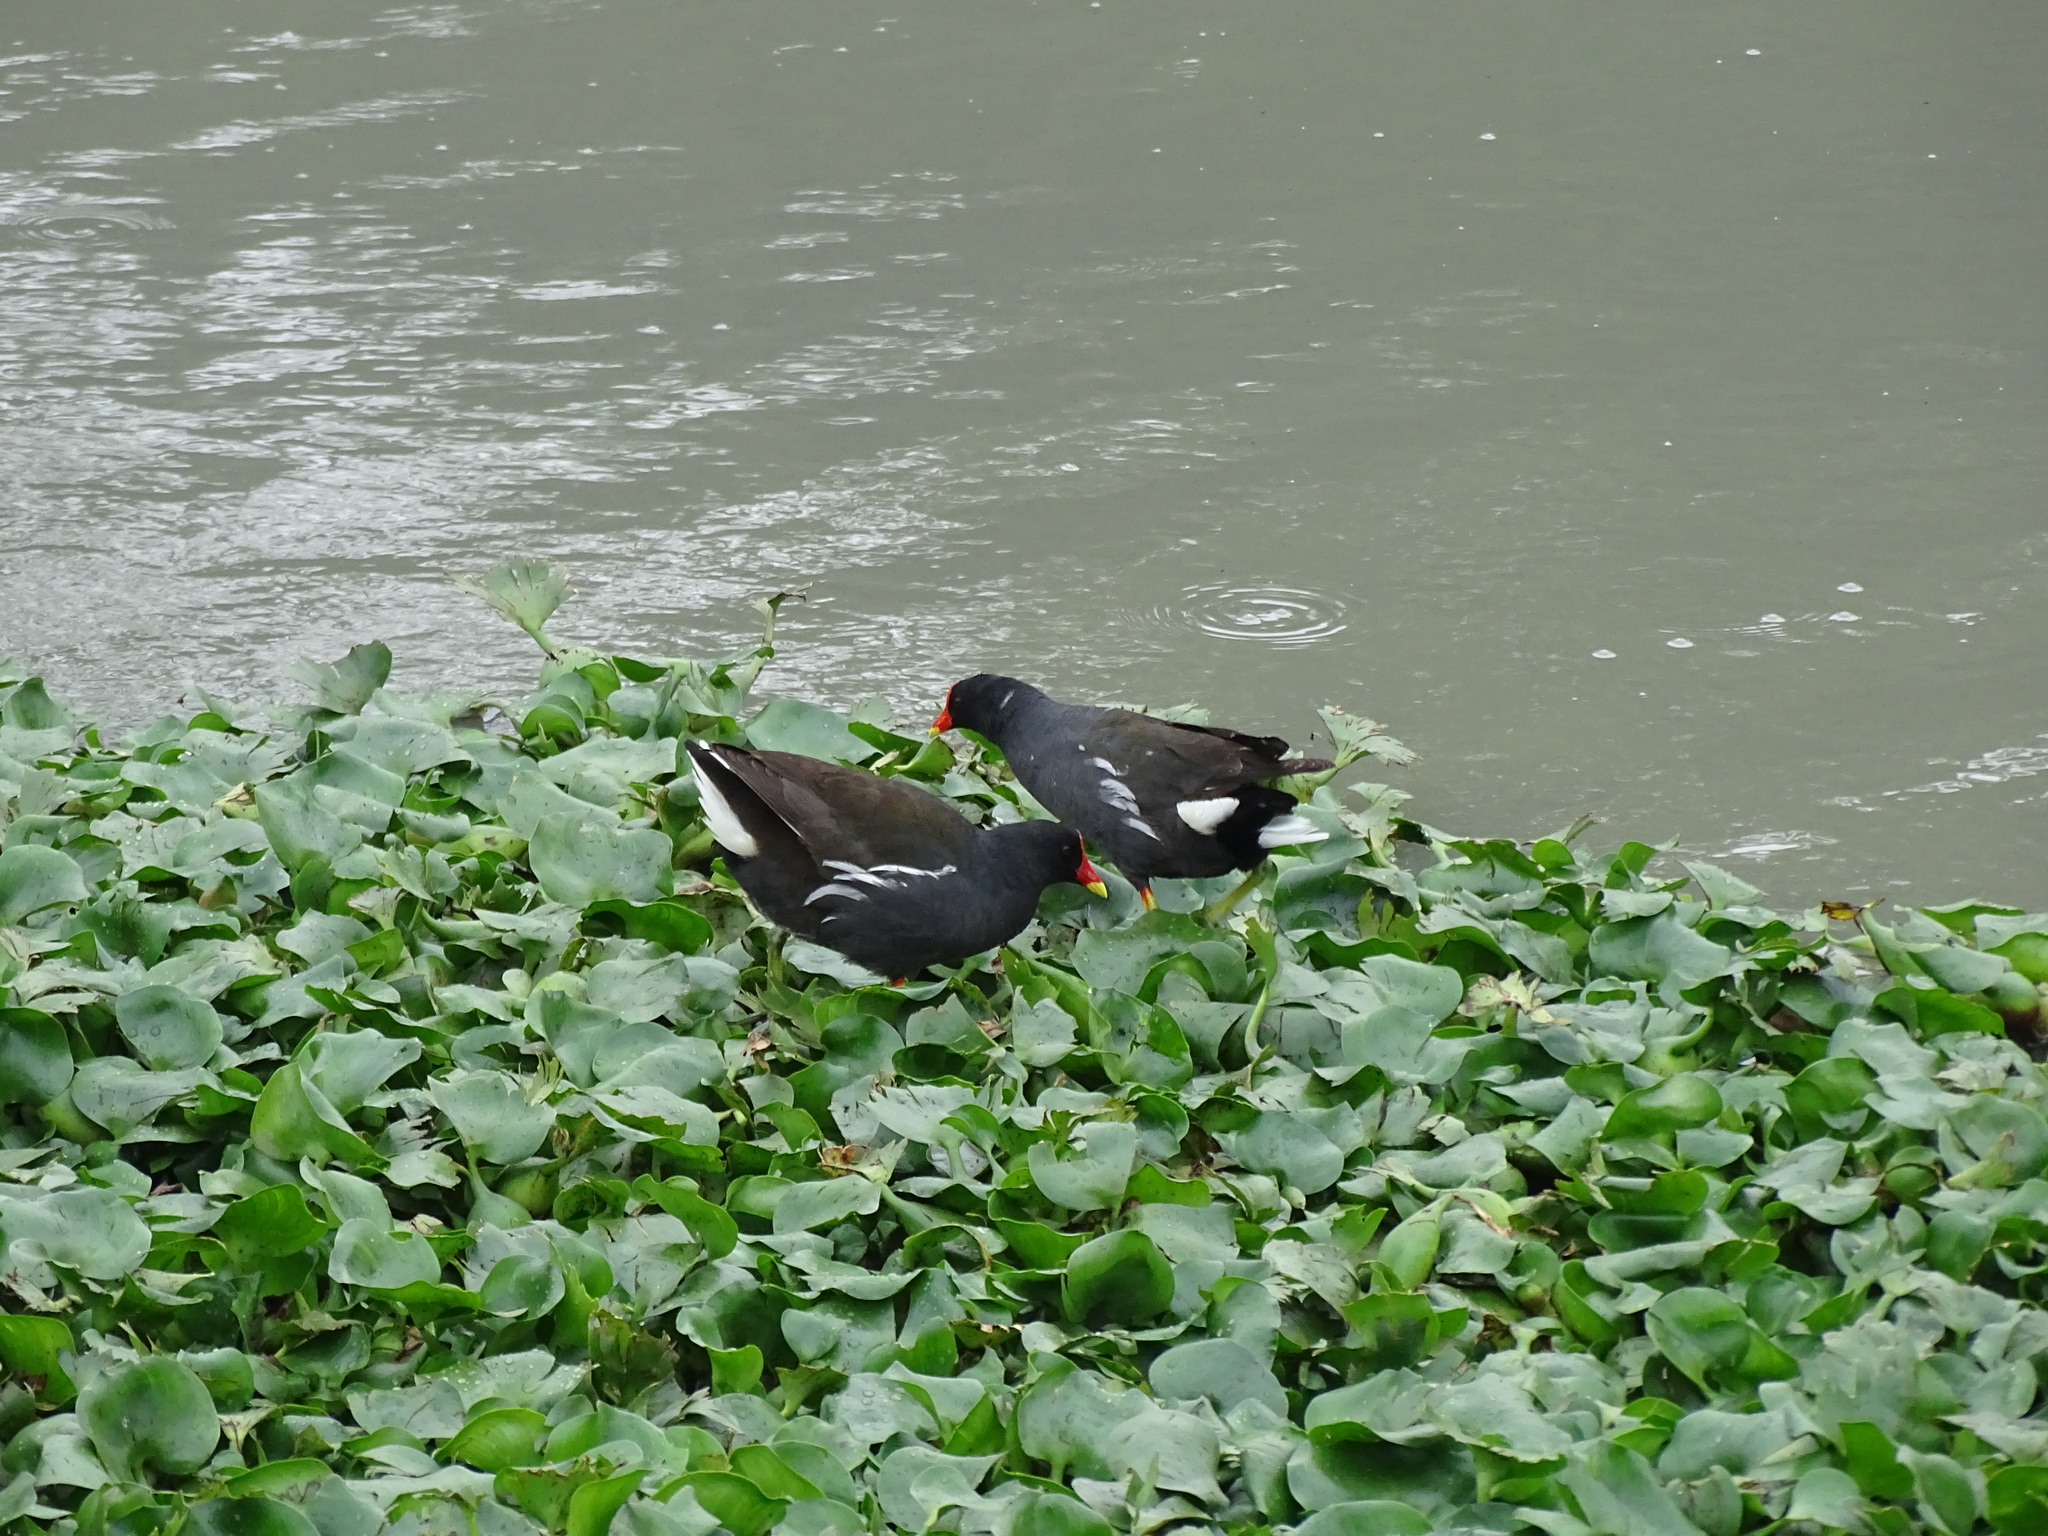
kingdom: Animalia
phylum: Chordata
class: Aves
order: Gruiformes
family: Rallidae
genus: Gallinula
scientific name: Gallinula chloropus
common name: Common moorhen
